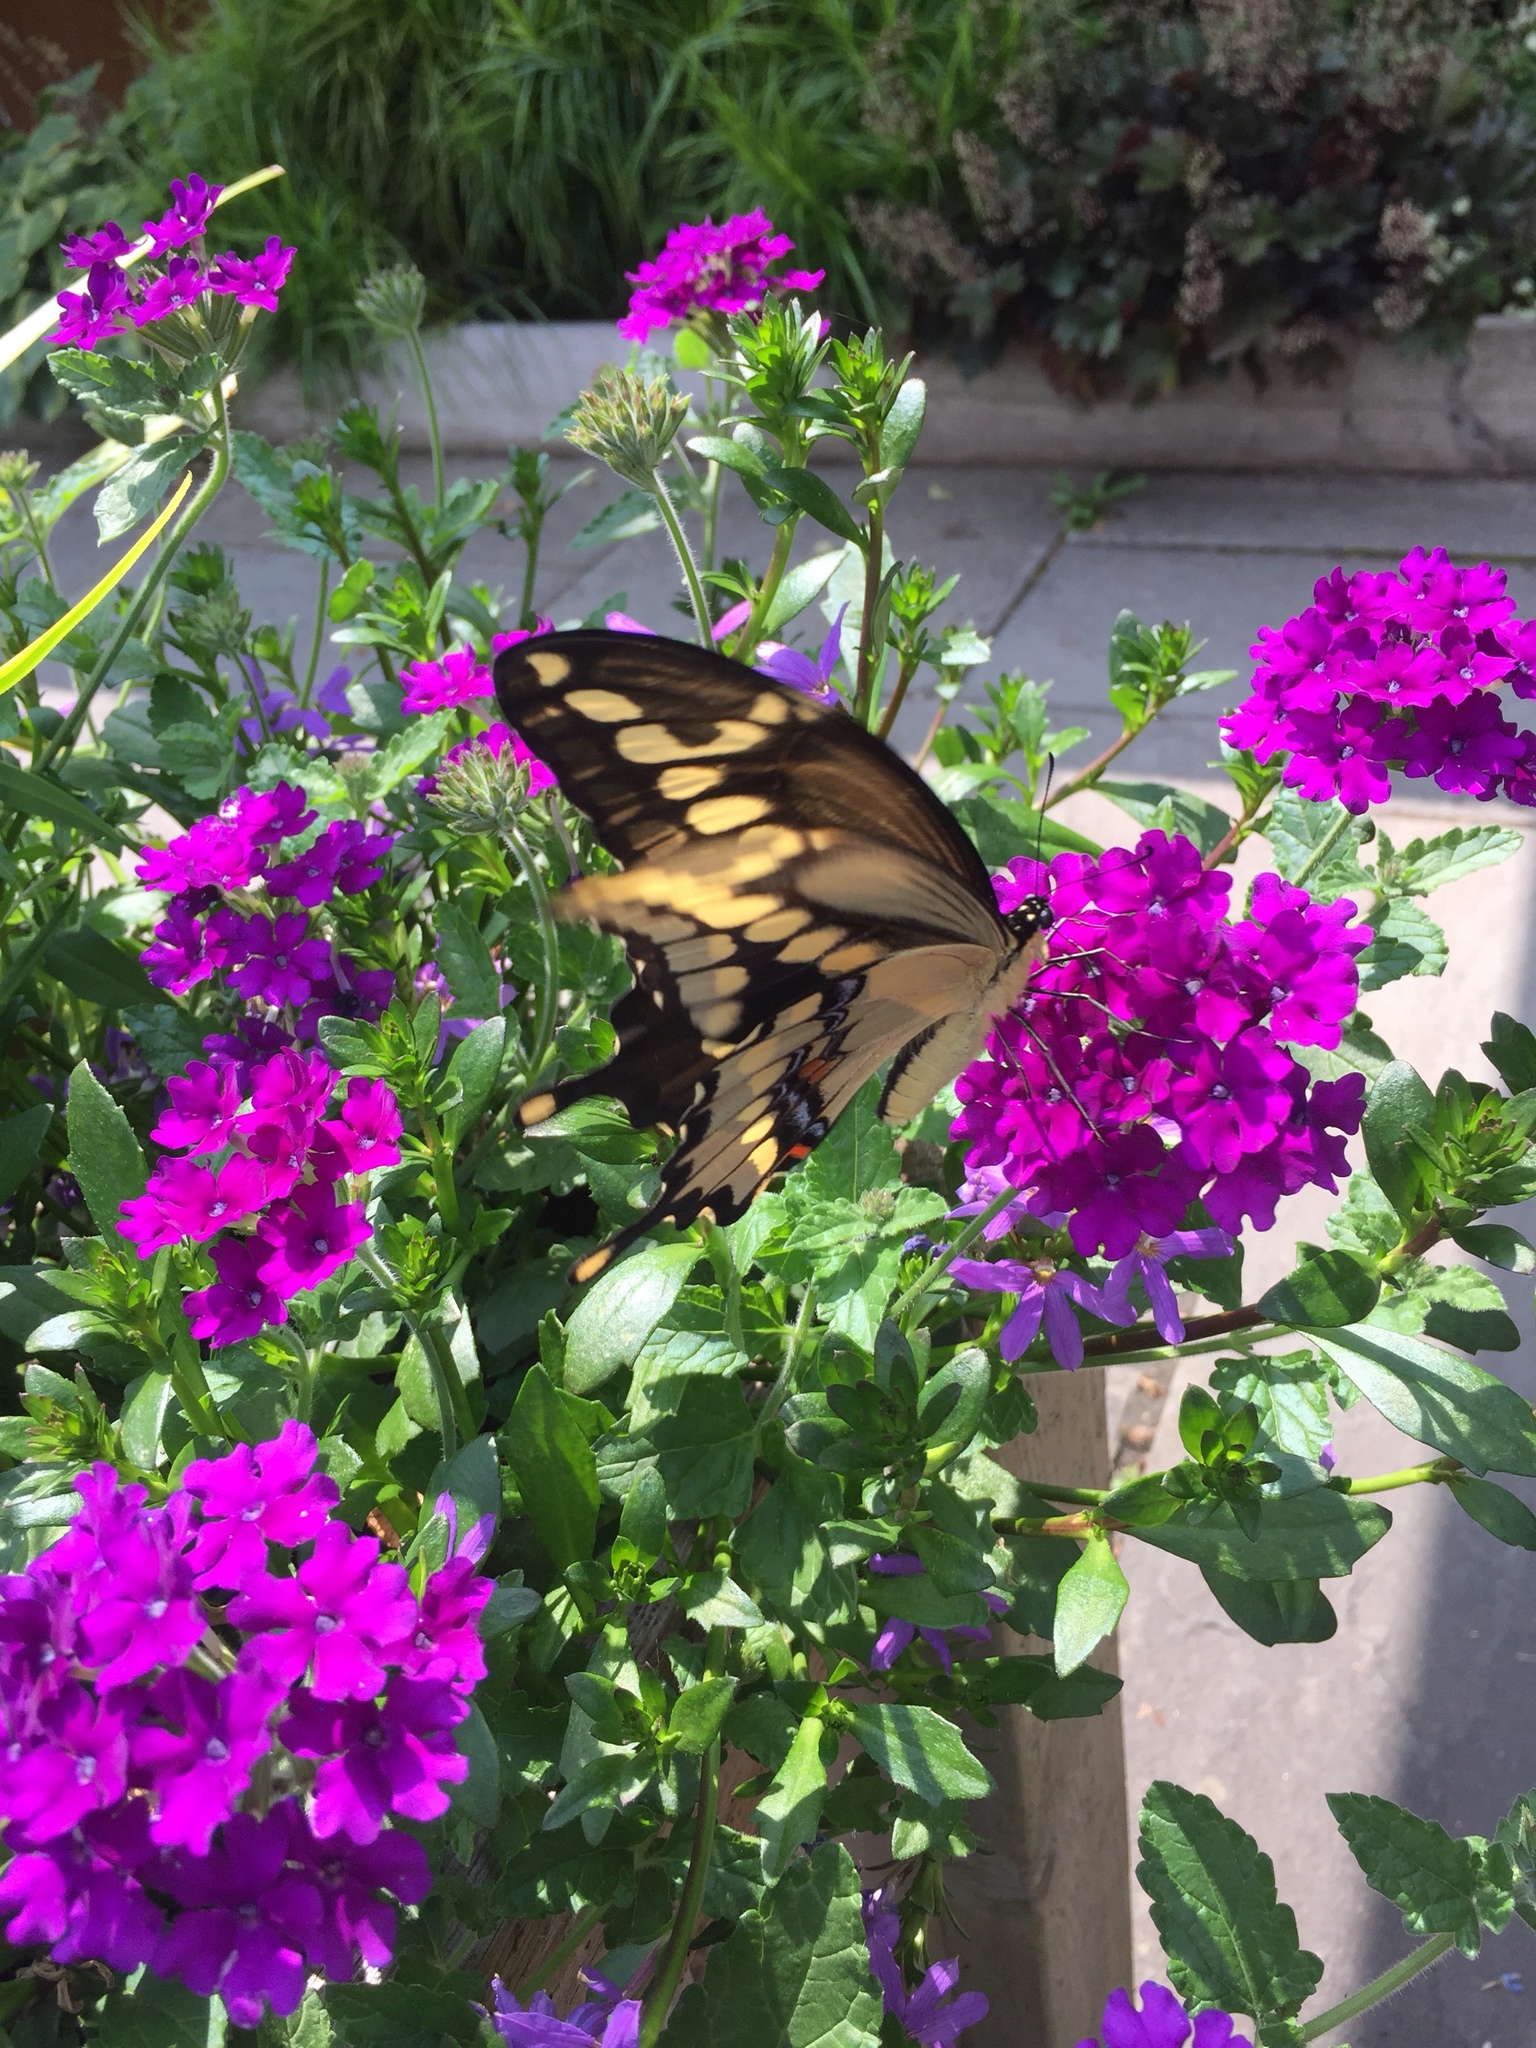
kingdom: Animalia
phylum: Arthropoda
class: Insecta
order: Lepidoptera
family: Papilionidae
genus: Papilio
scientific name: Papilio cresphontes
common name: Giant swallowtail
